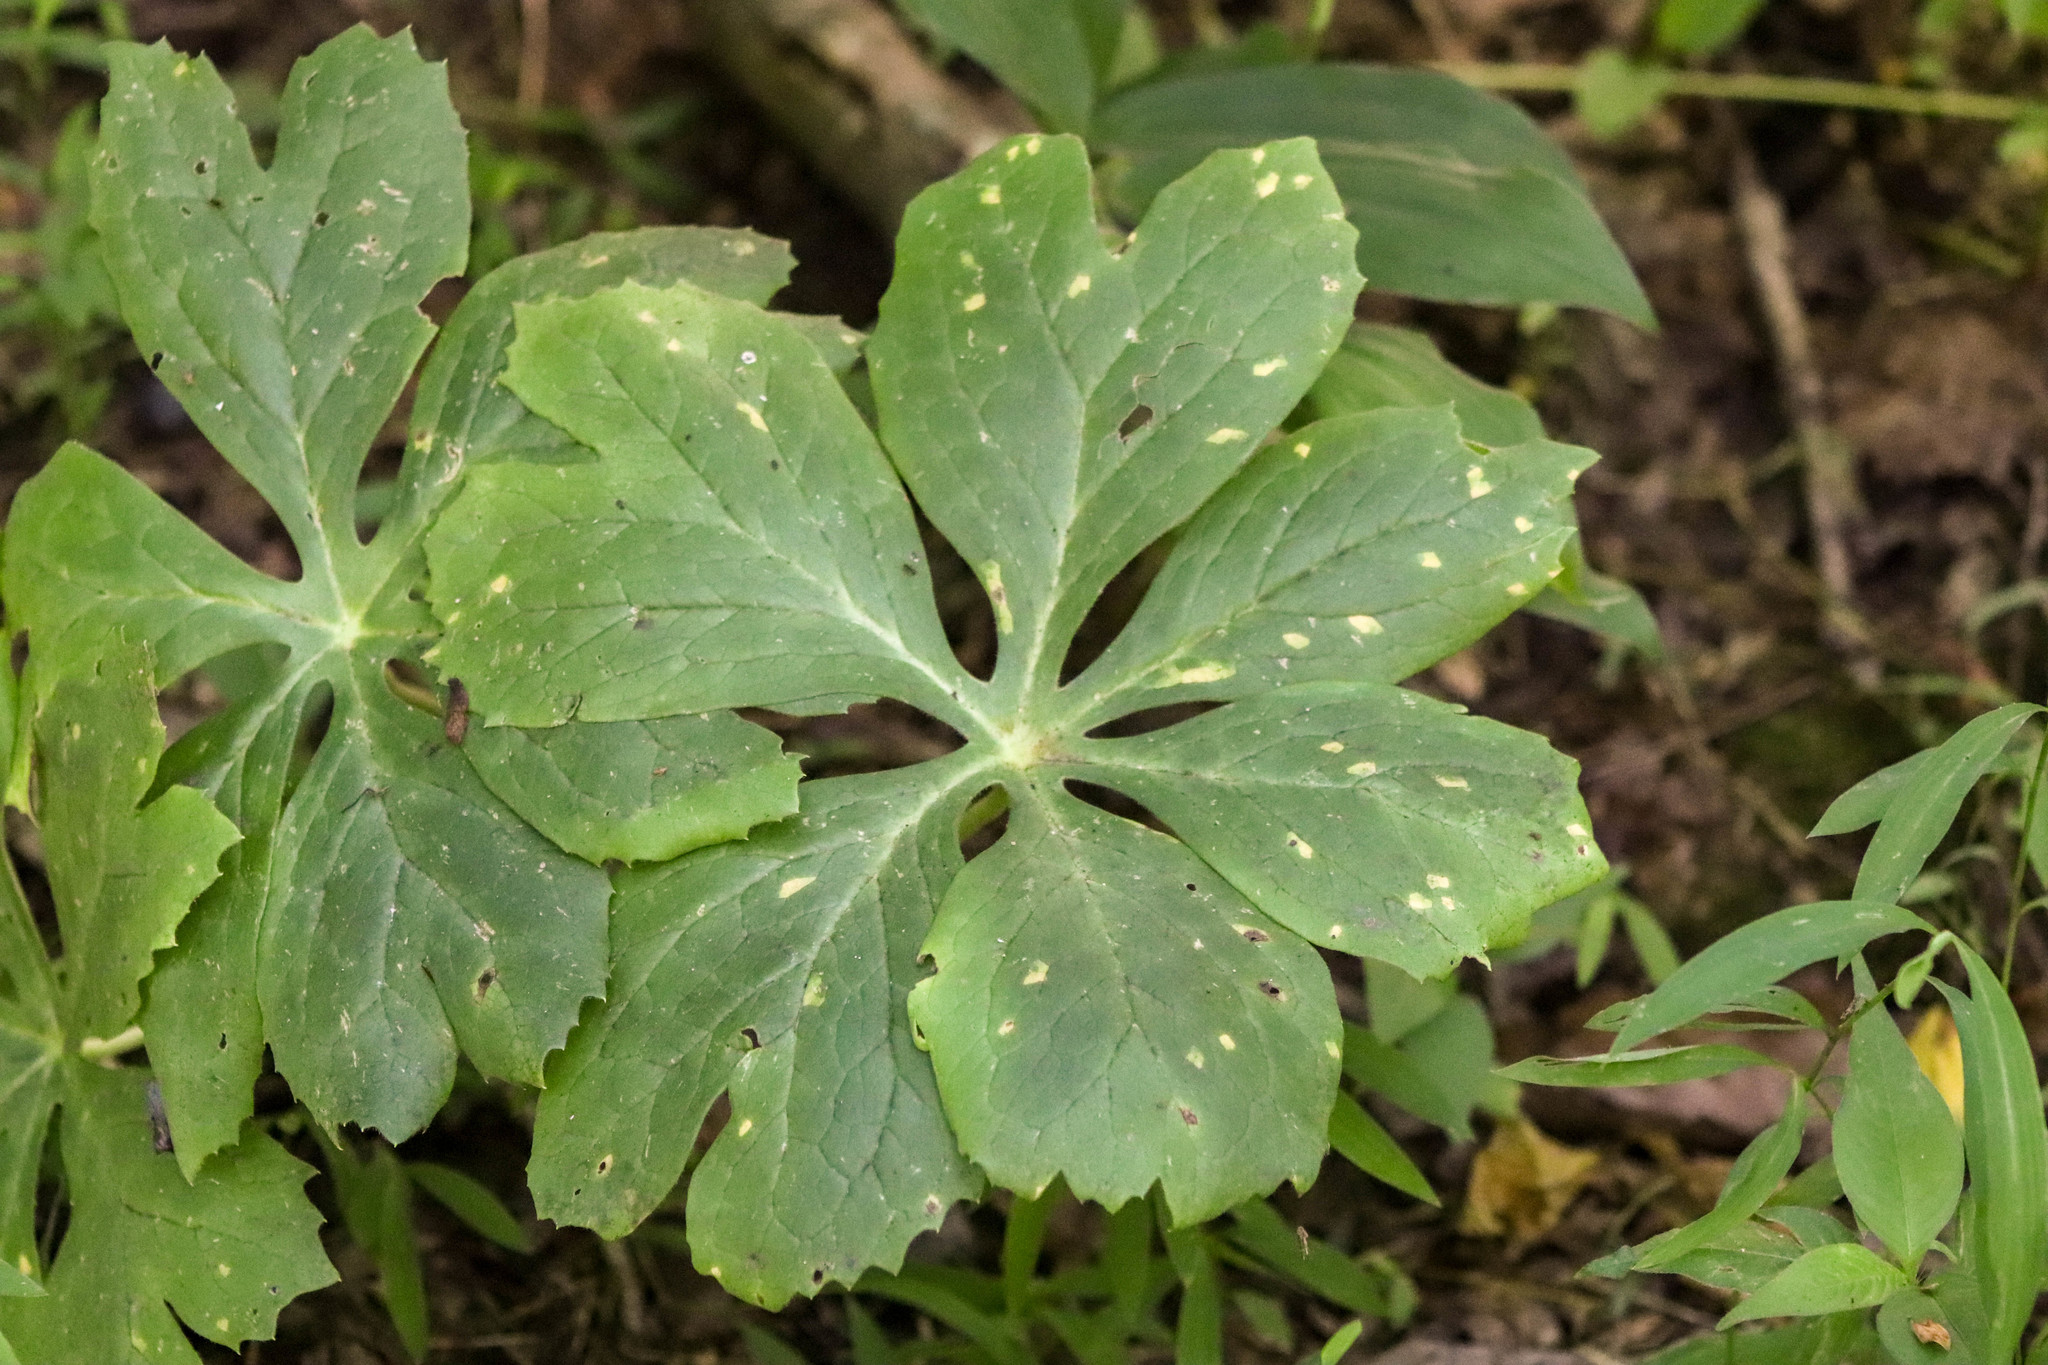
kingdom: Plantae
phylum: Tracheophyta
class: Magnoliopsida
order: Ranunculales
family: Berberidaceae
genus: Podophyllum
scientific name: Podophyllum peltatum
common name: Wild mandrake
